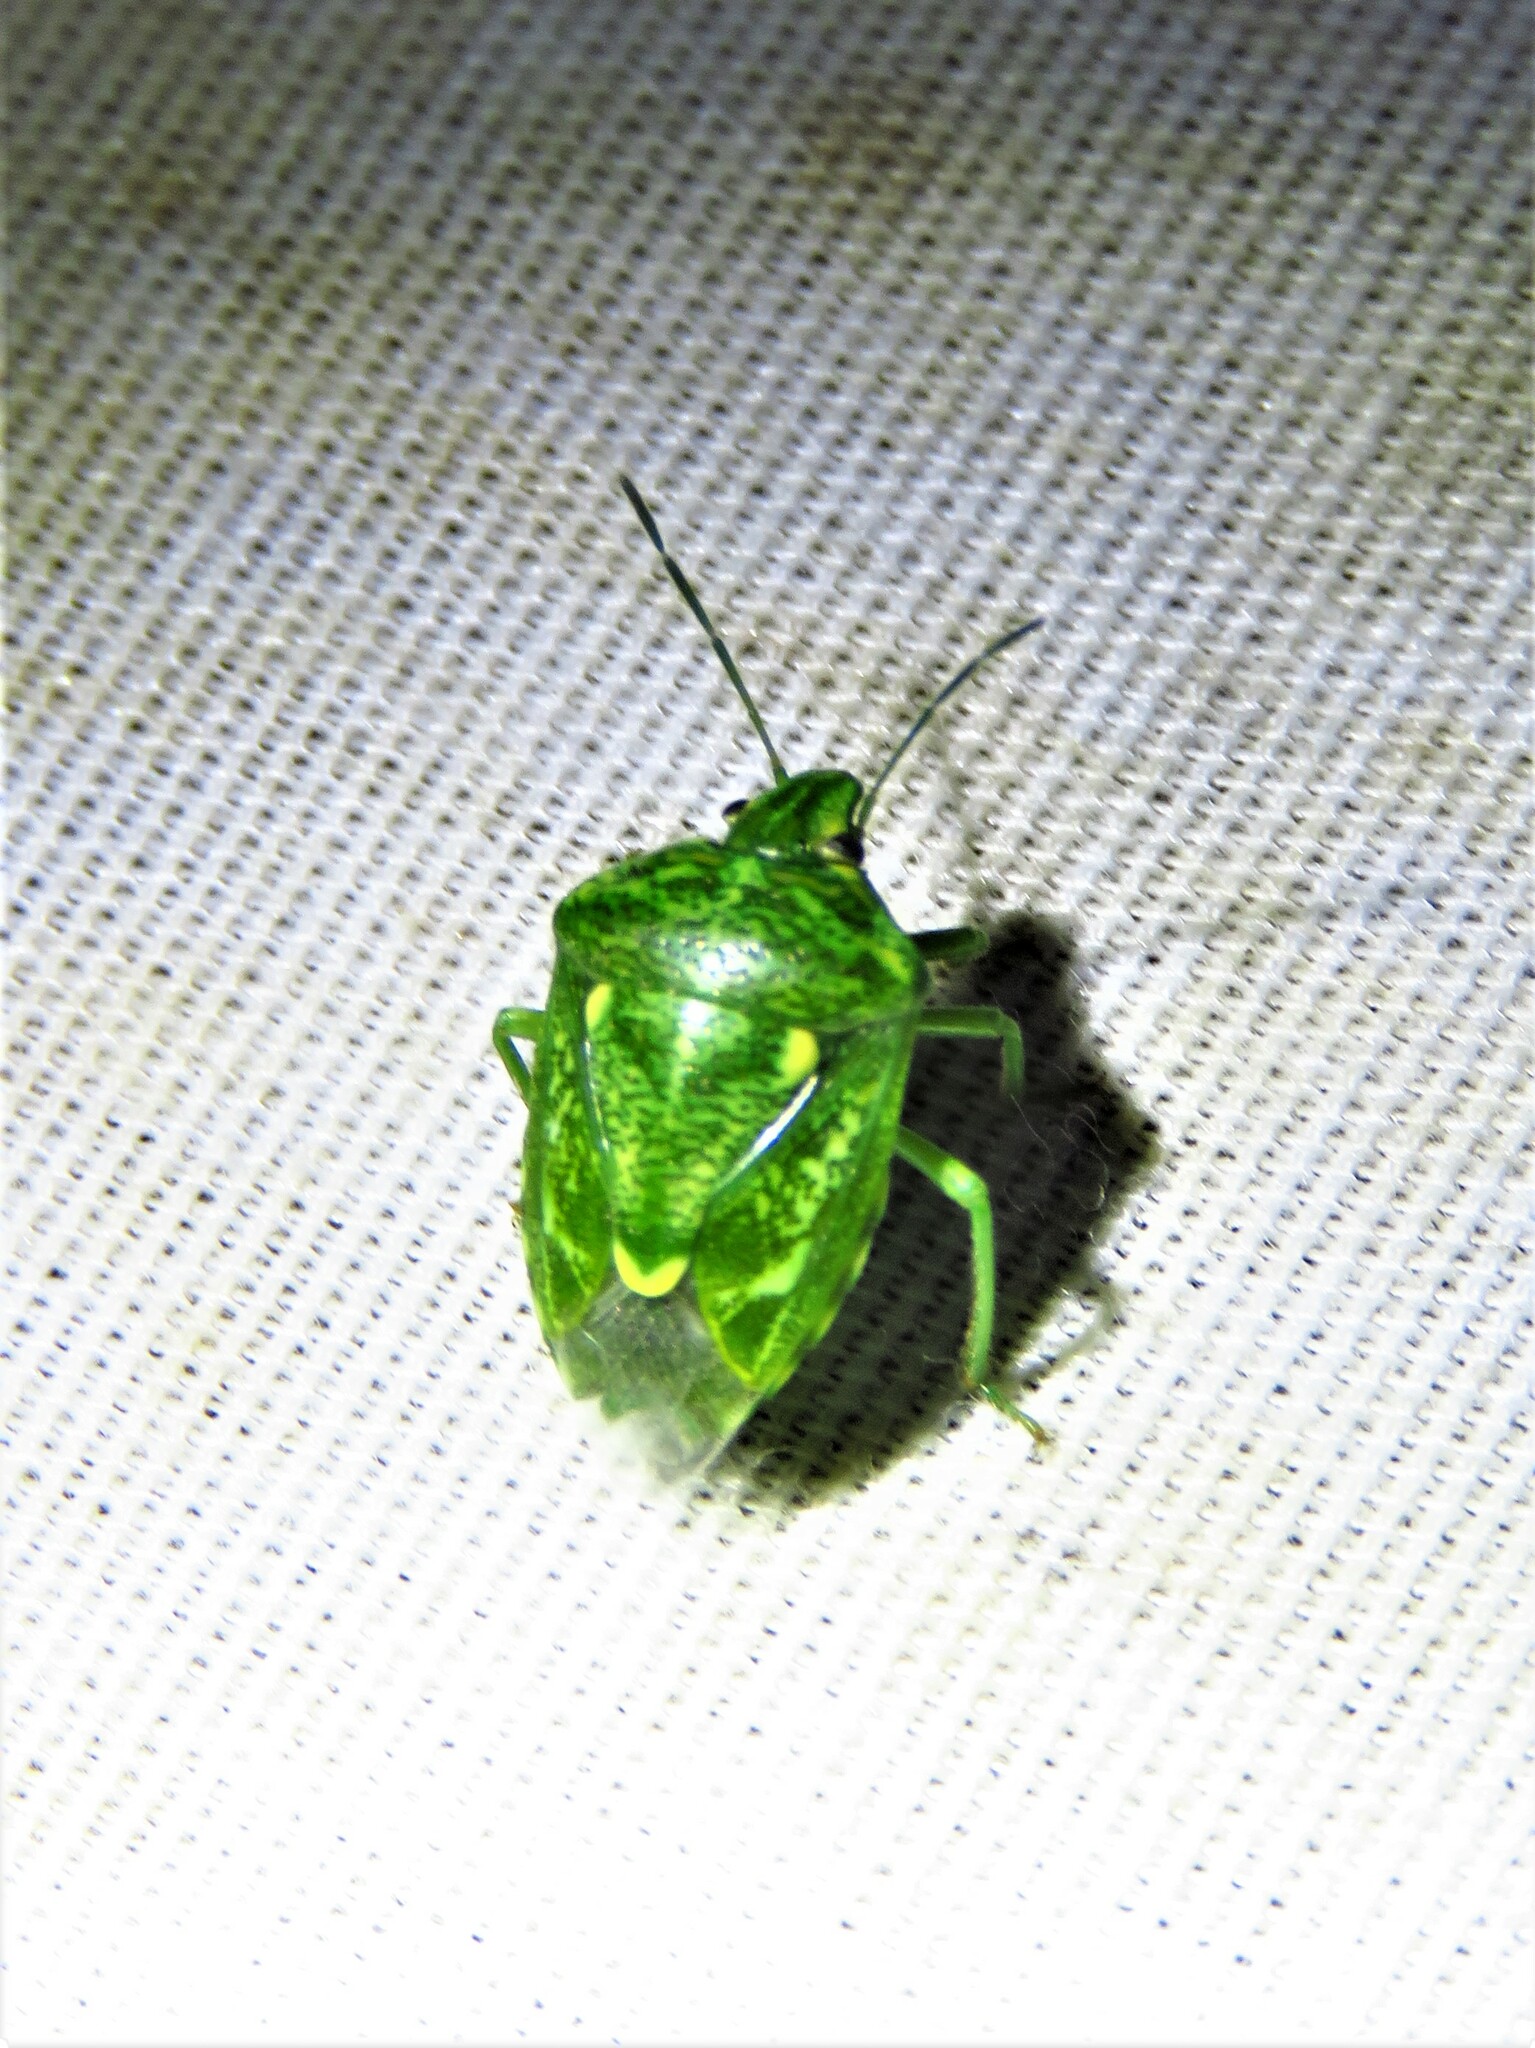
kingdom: Animalia
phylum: Arthropoda
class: Insecta
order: Hemiptera
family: Pentatomidae
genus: Banasa
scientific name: Banasa euchlora
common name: Cedar berry bug
